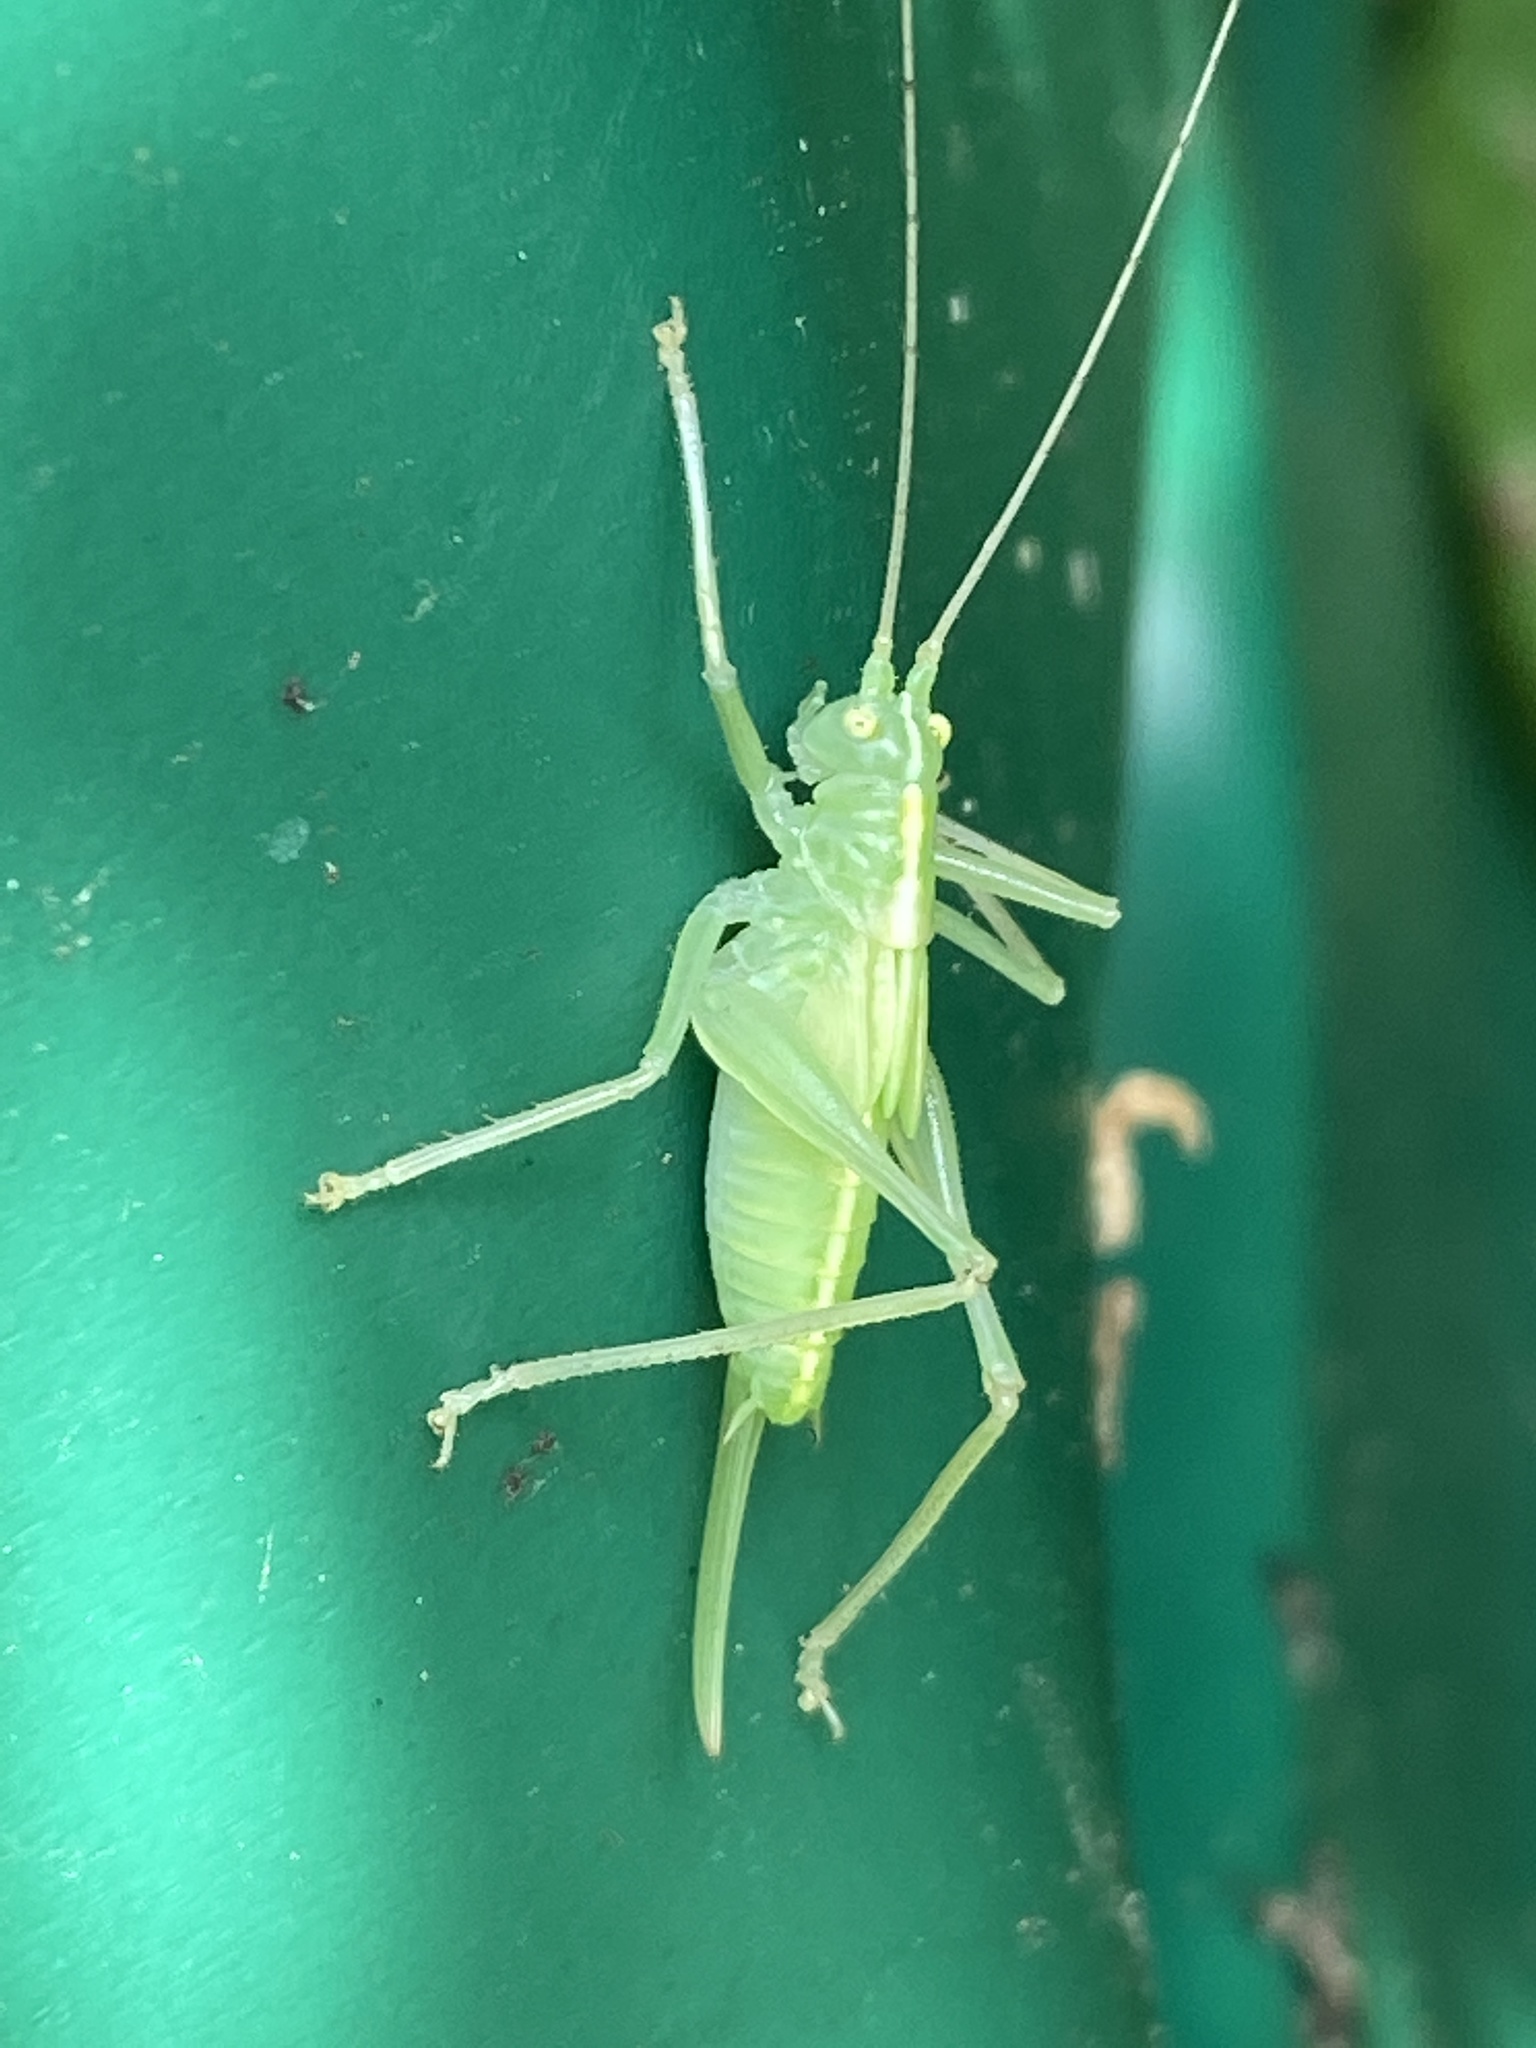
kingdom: Animalia
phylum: Arthropoda
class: Insecta
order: Orthoptera
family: Tettigoniidae
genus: Meconema
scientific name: Meconema thalassinum
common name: Oak bush-cricket
